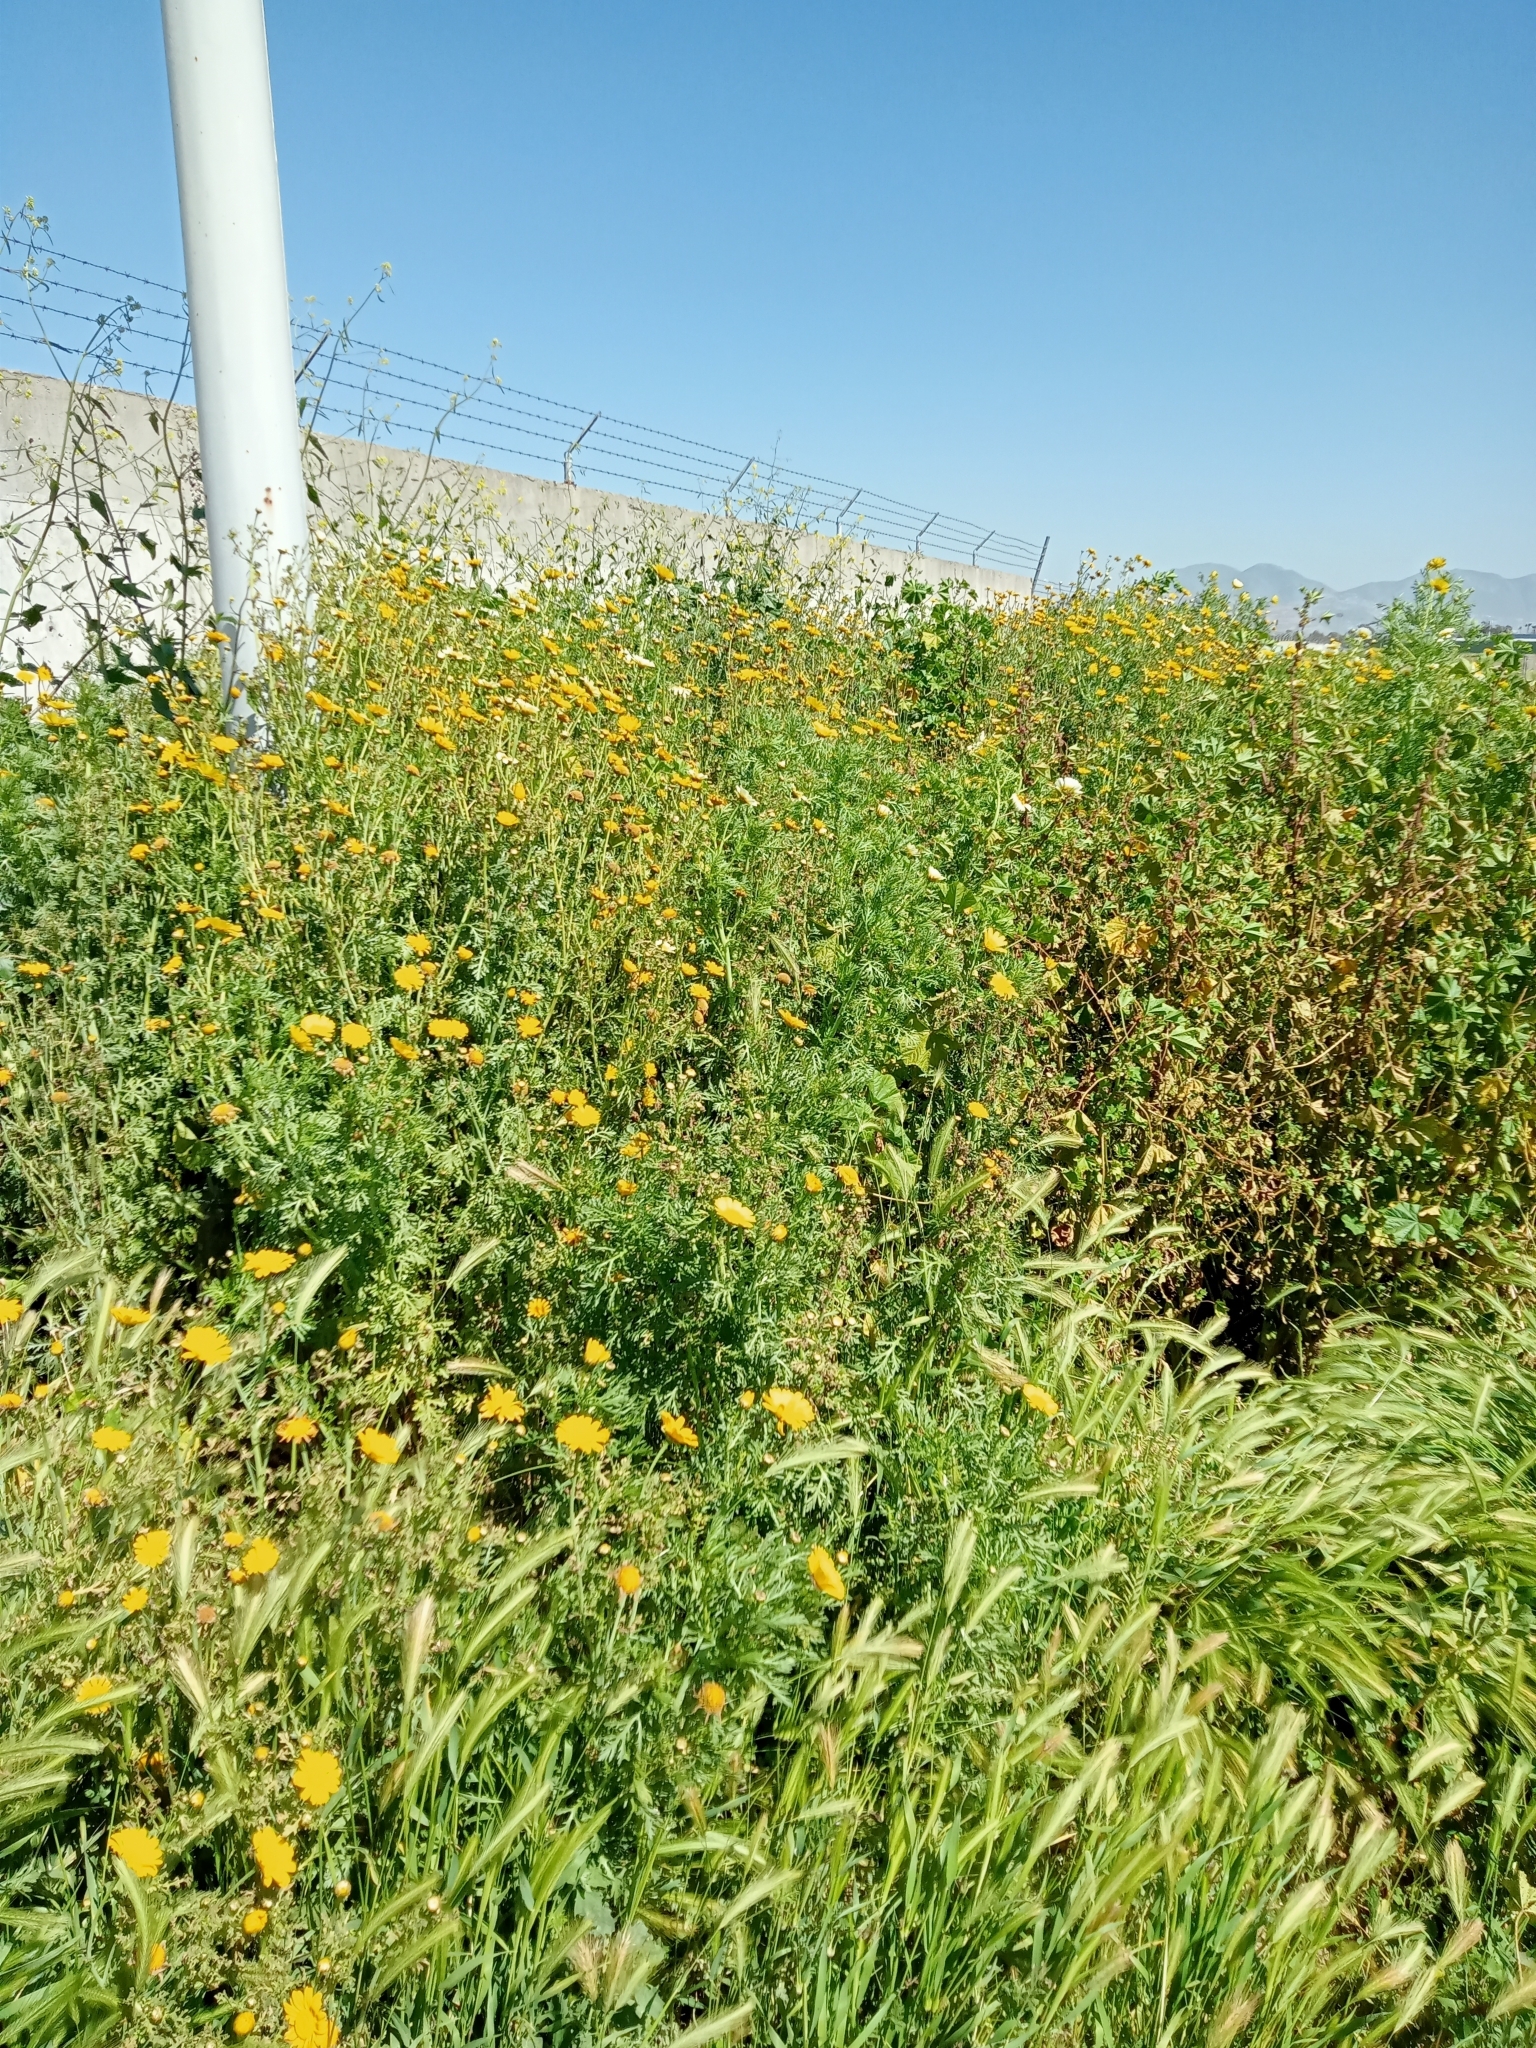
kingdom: Plantae
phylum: Tracheophyta
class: Magnoliopsida
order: Asterales
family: Asteraceae
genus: Glebionis
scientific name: Glebionis coronaria
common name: Crowndaisy
